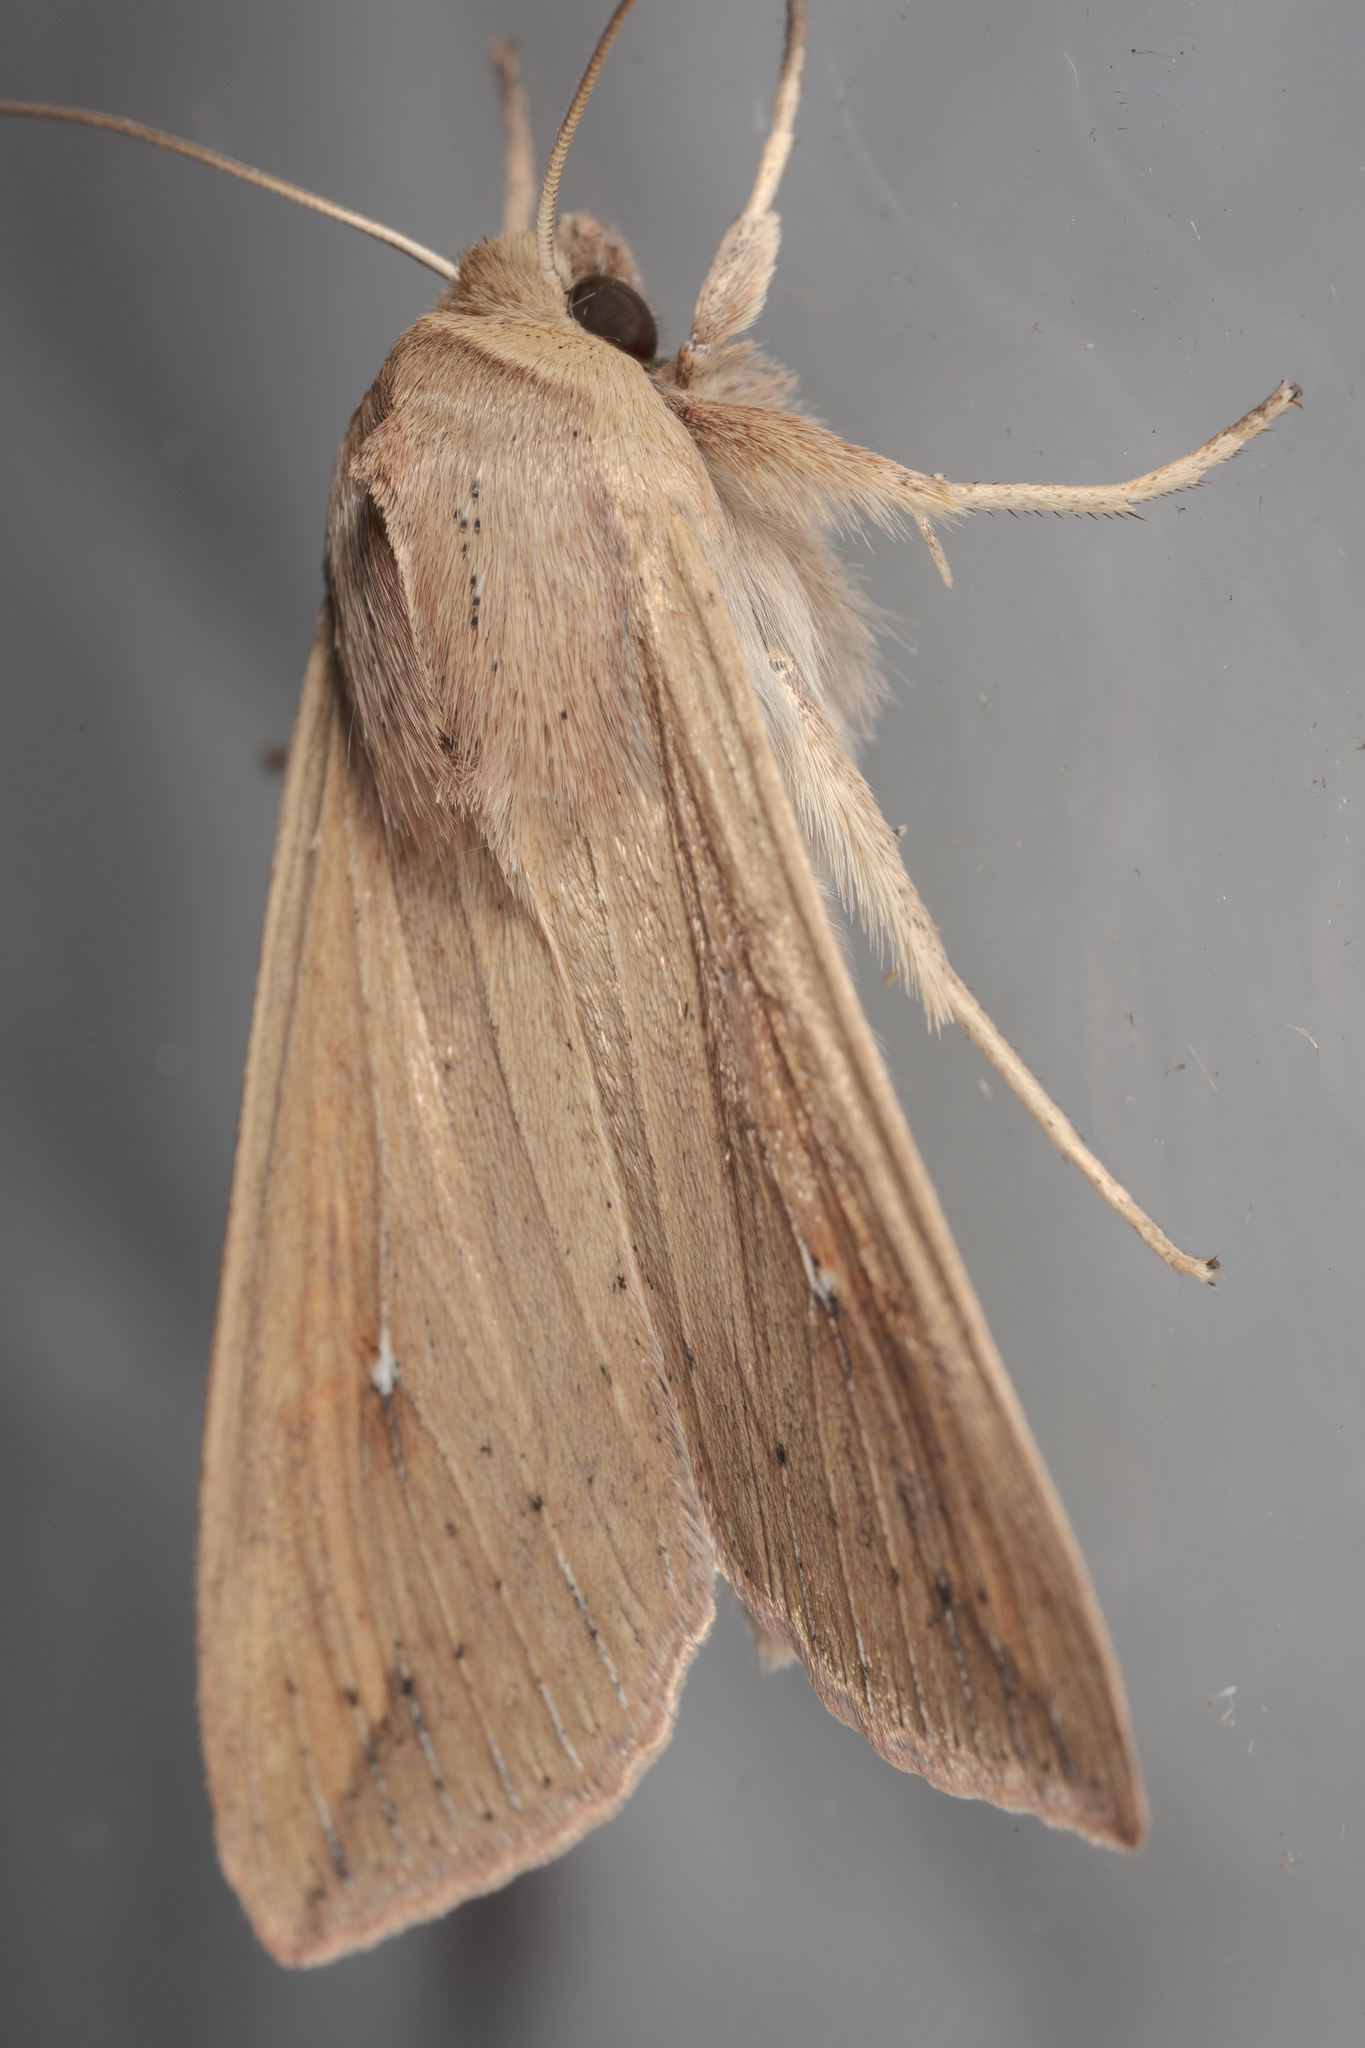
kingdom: Animalia
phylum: Arthropoda
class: Insecta
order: Lepidoptera
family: Noctuidae
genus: Mythimna
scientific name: Mythimna unipuncta
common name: White-speck
